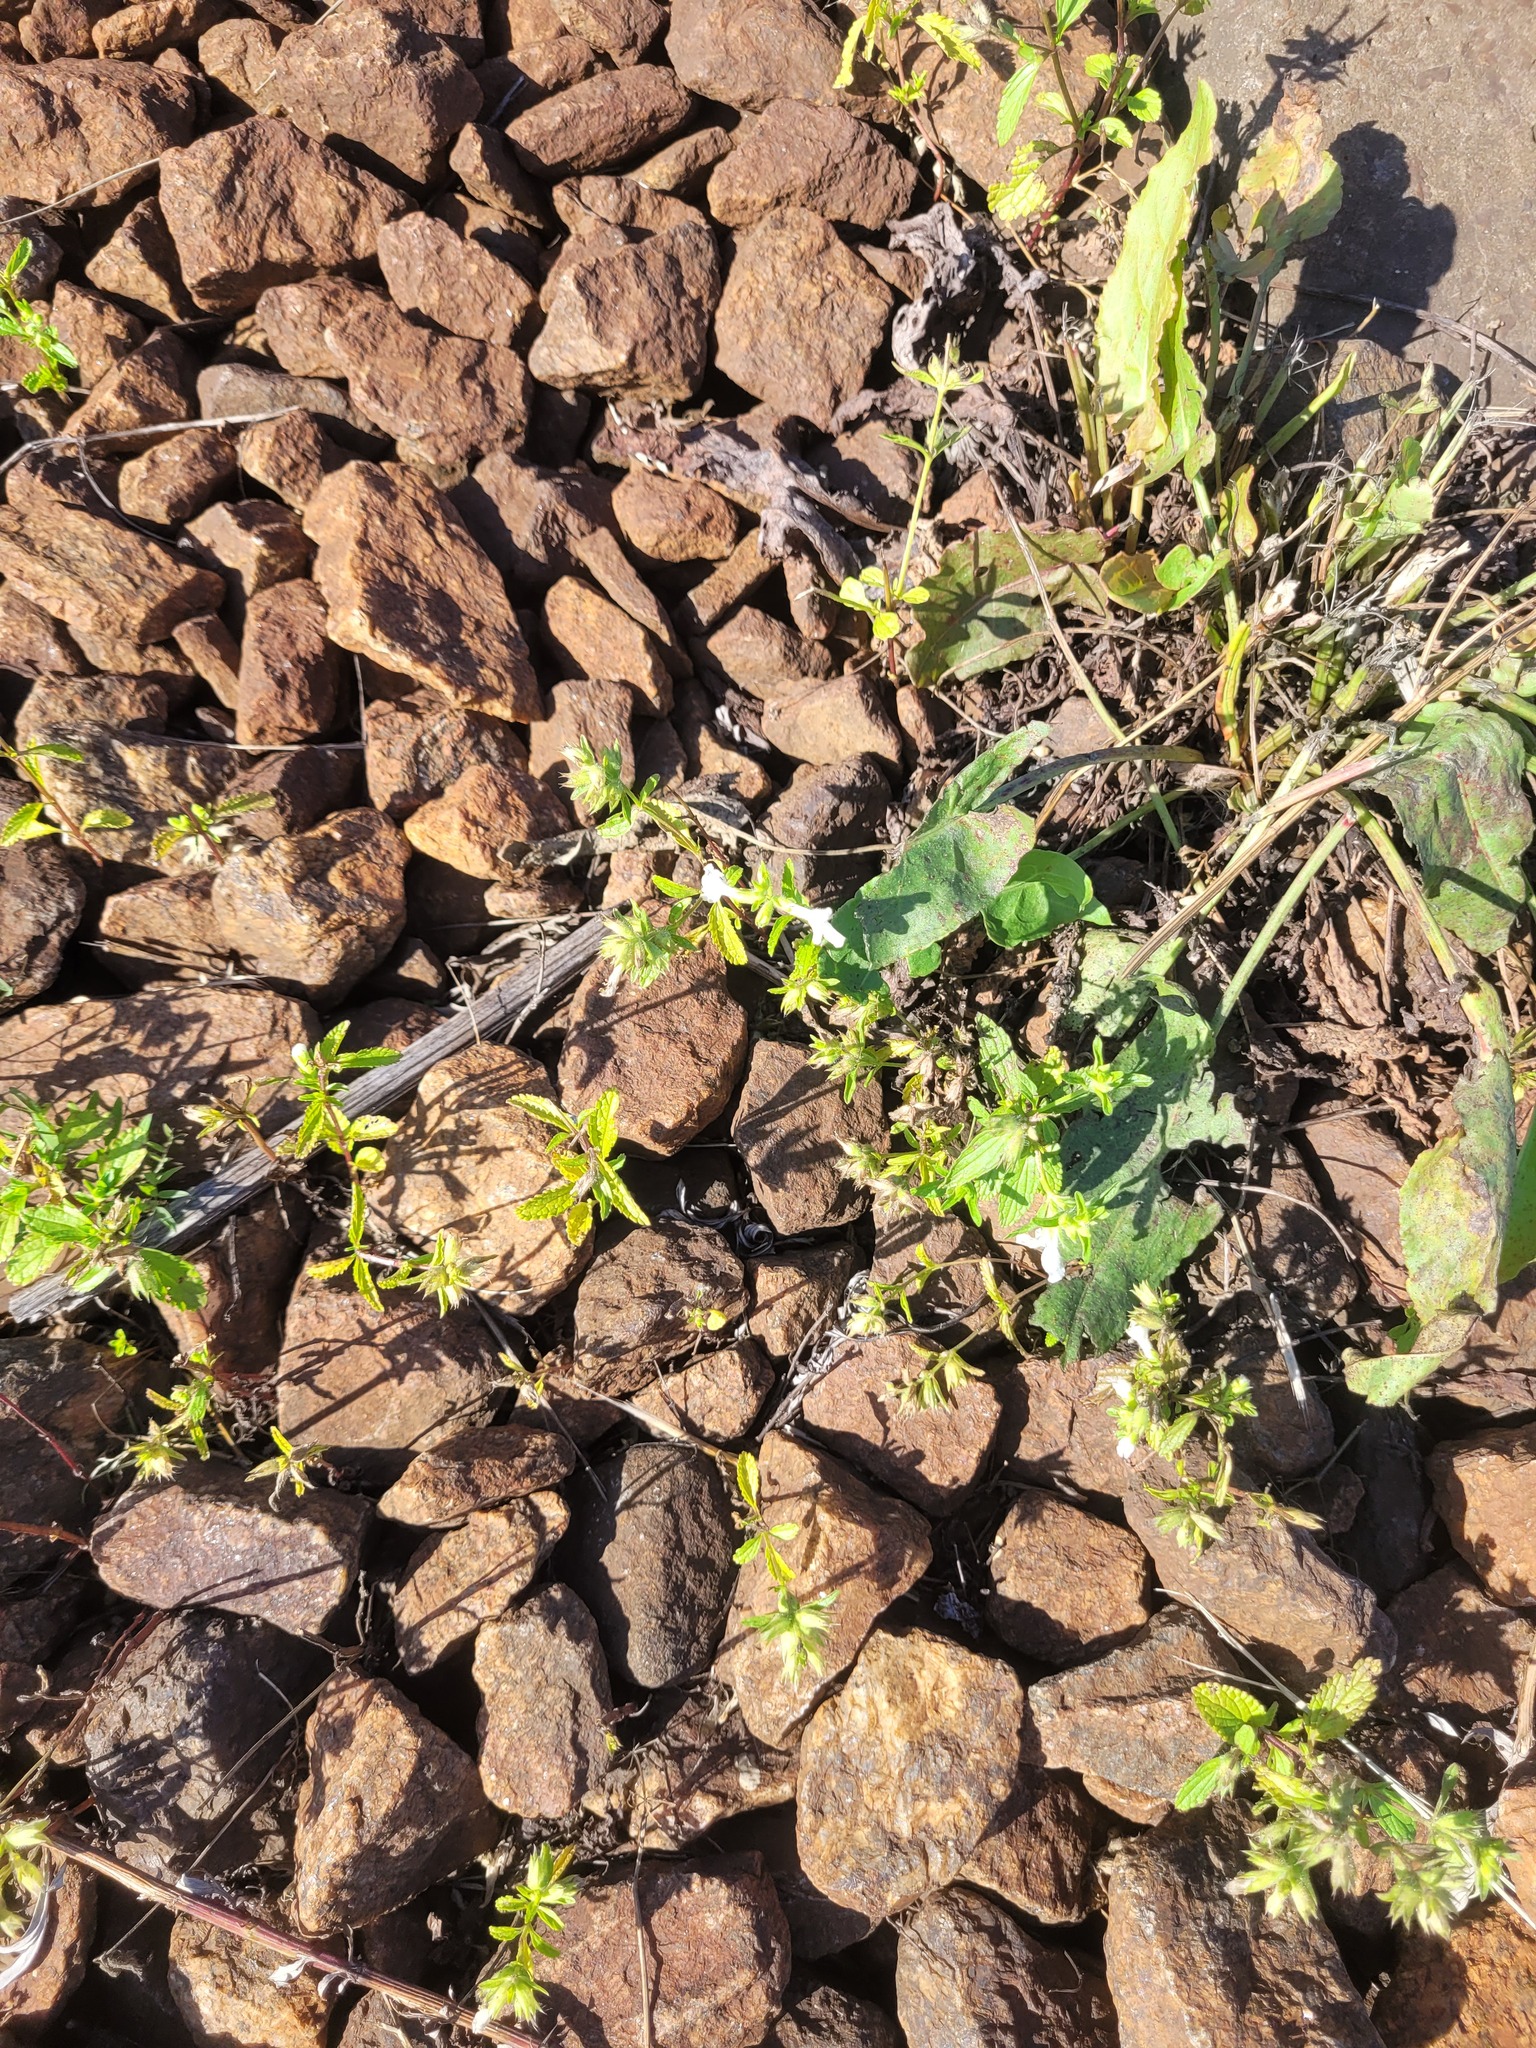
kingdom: Plantae
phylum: Tracheophyta
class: Magnoliopsida
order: Lamiales
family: Lamiaceae
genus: Stachys
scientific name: Stachys annua
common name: Annual yellow-woundwort
